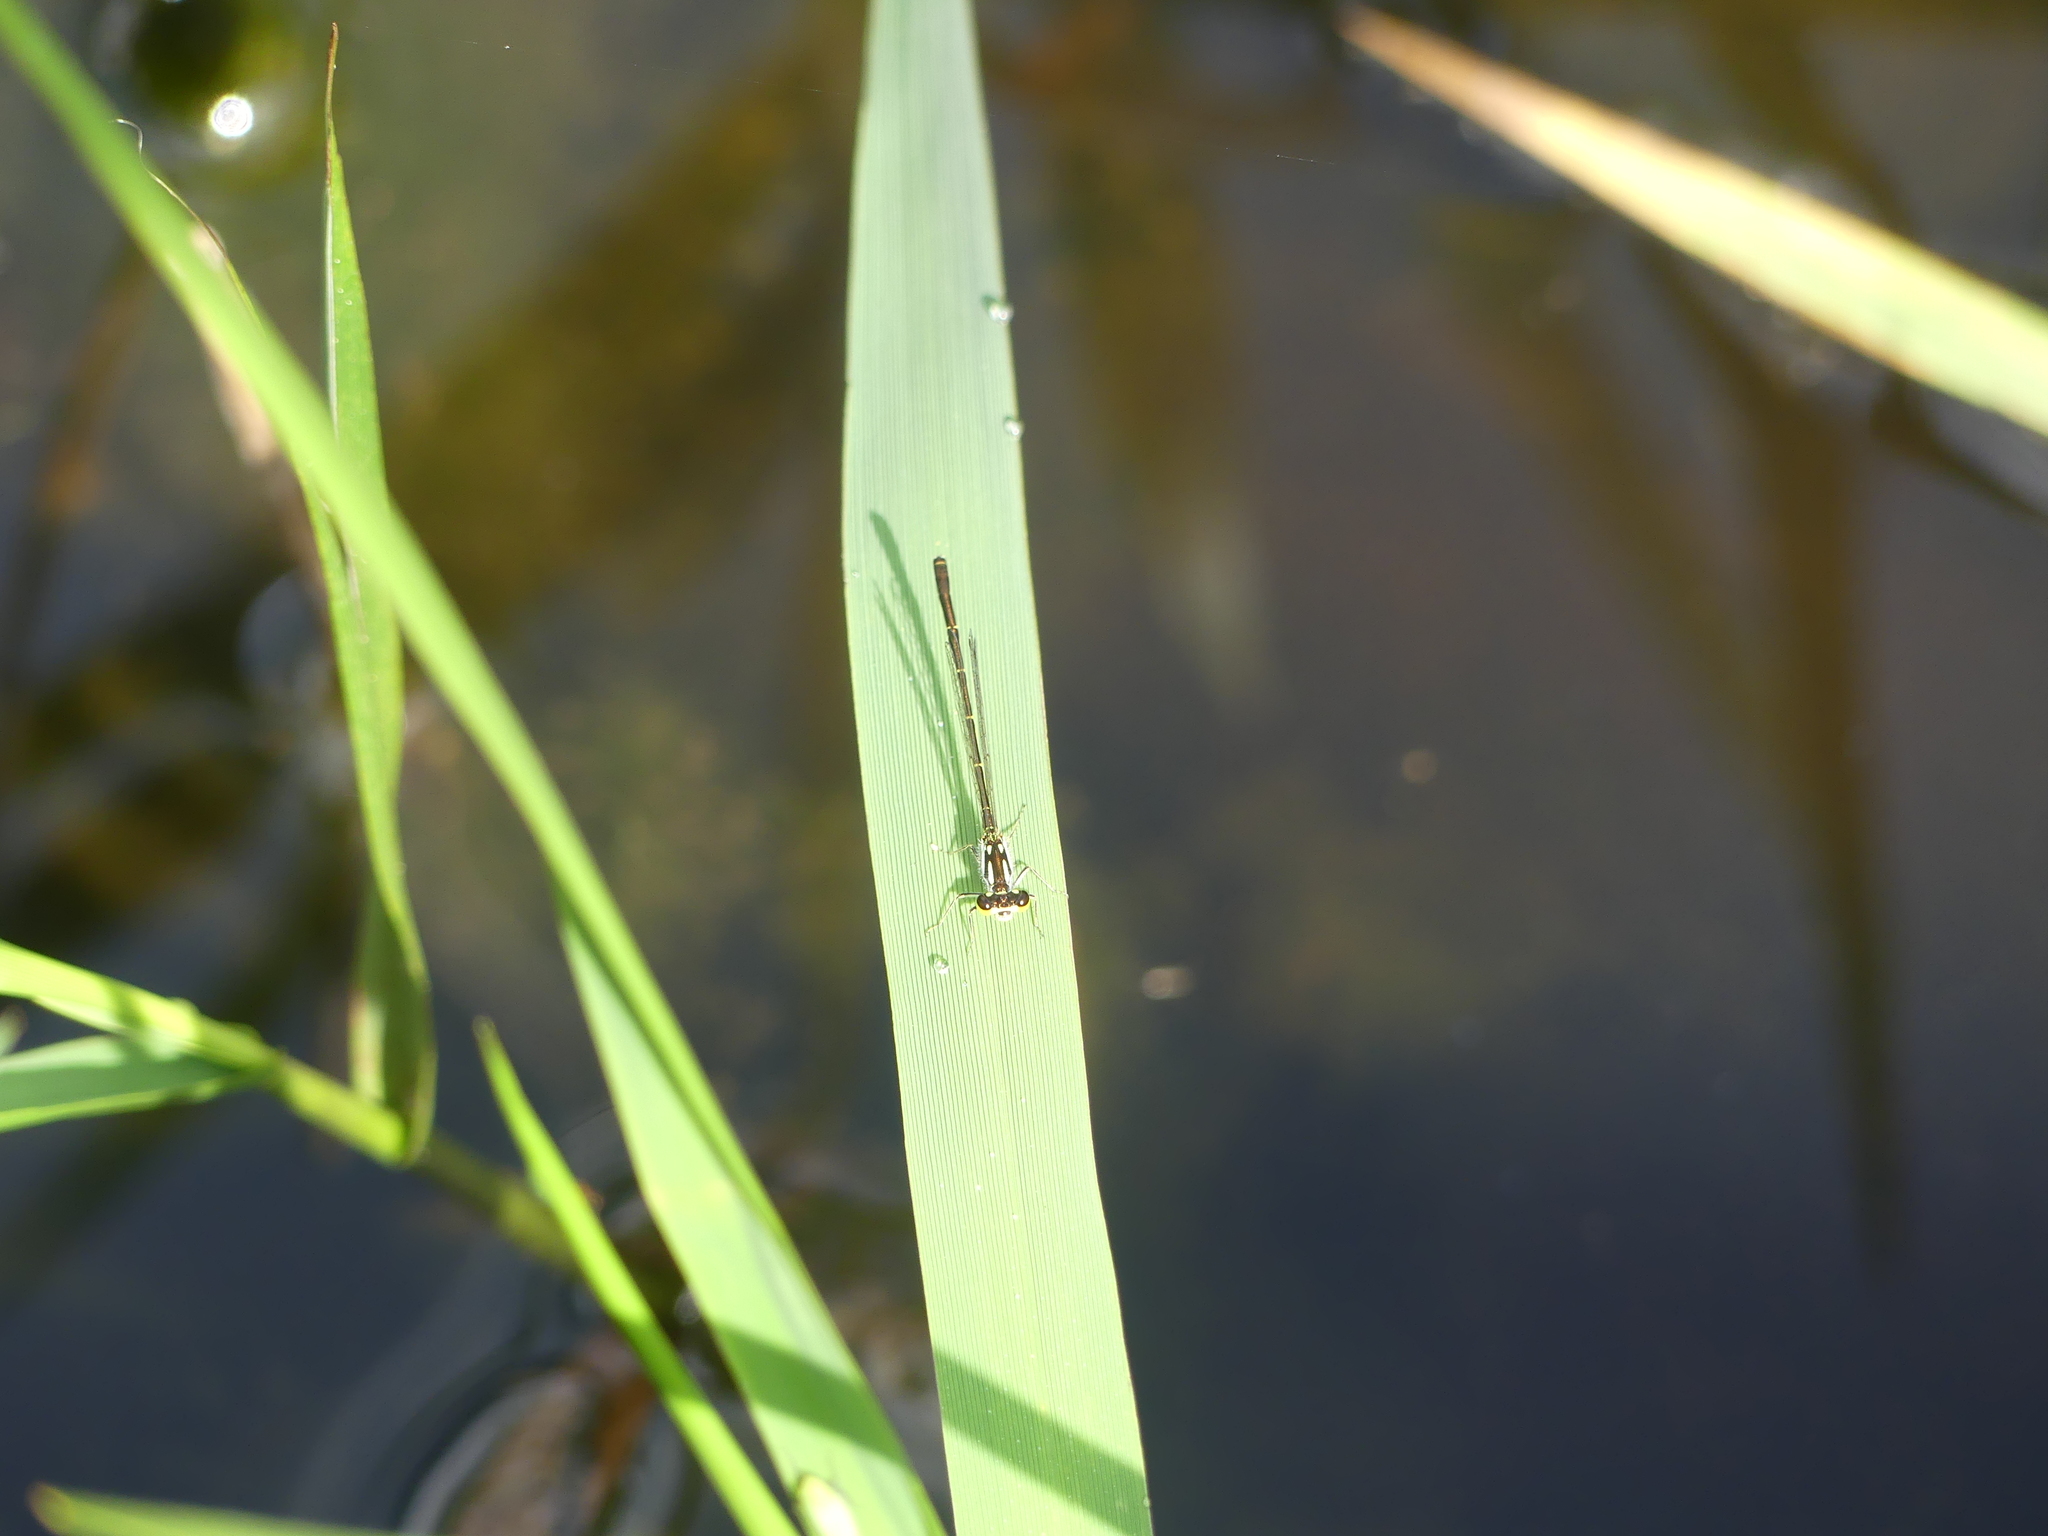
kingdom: Animalia
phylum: Arthropoda
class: Insecta
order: Odonata
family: Coenagrionidae
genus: Ischnura
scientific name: Ischnura posita
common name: Fragile forktail
